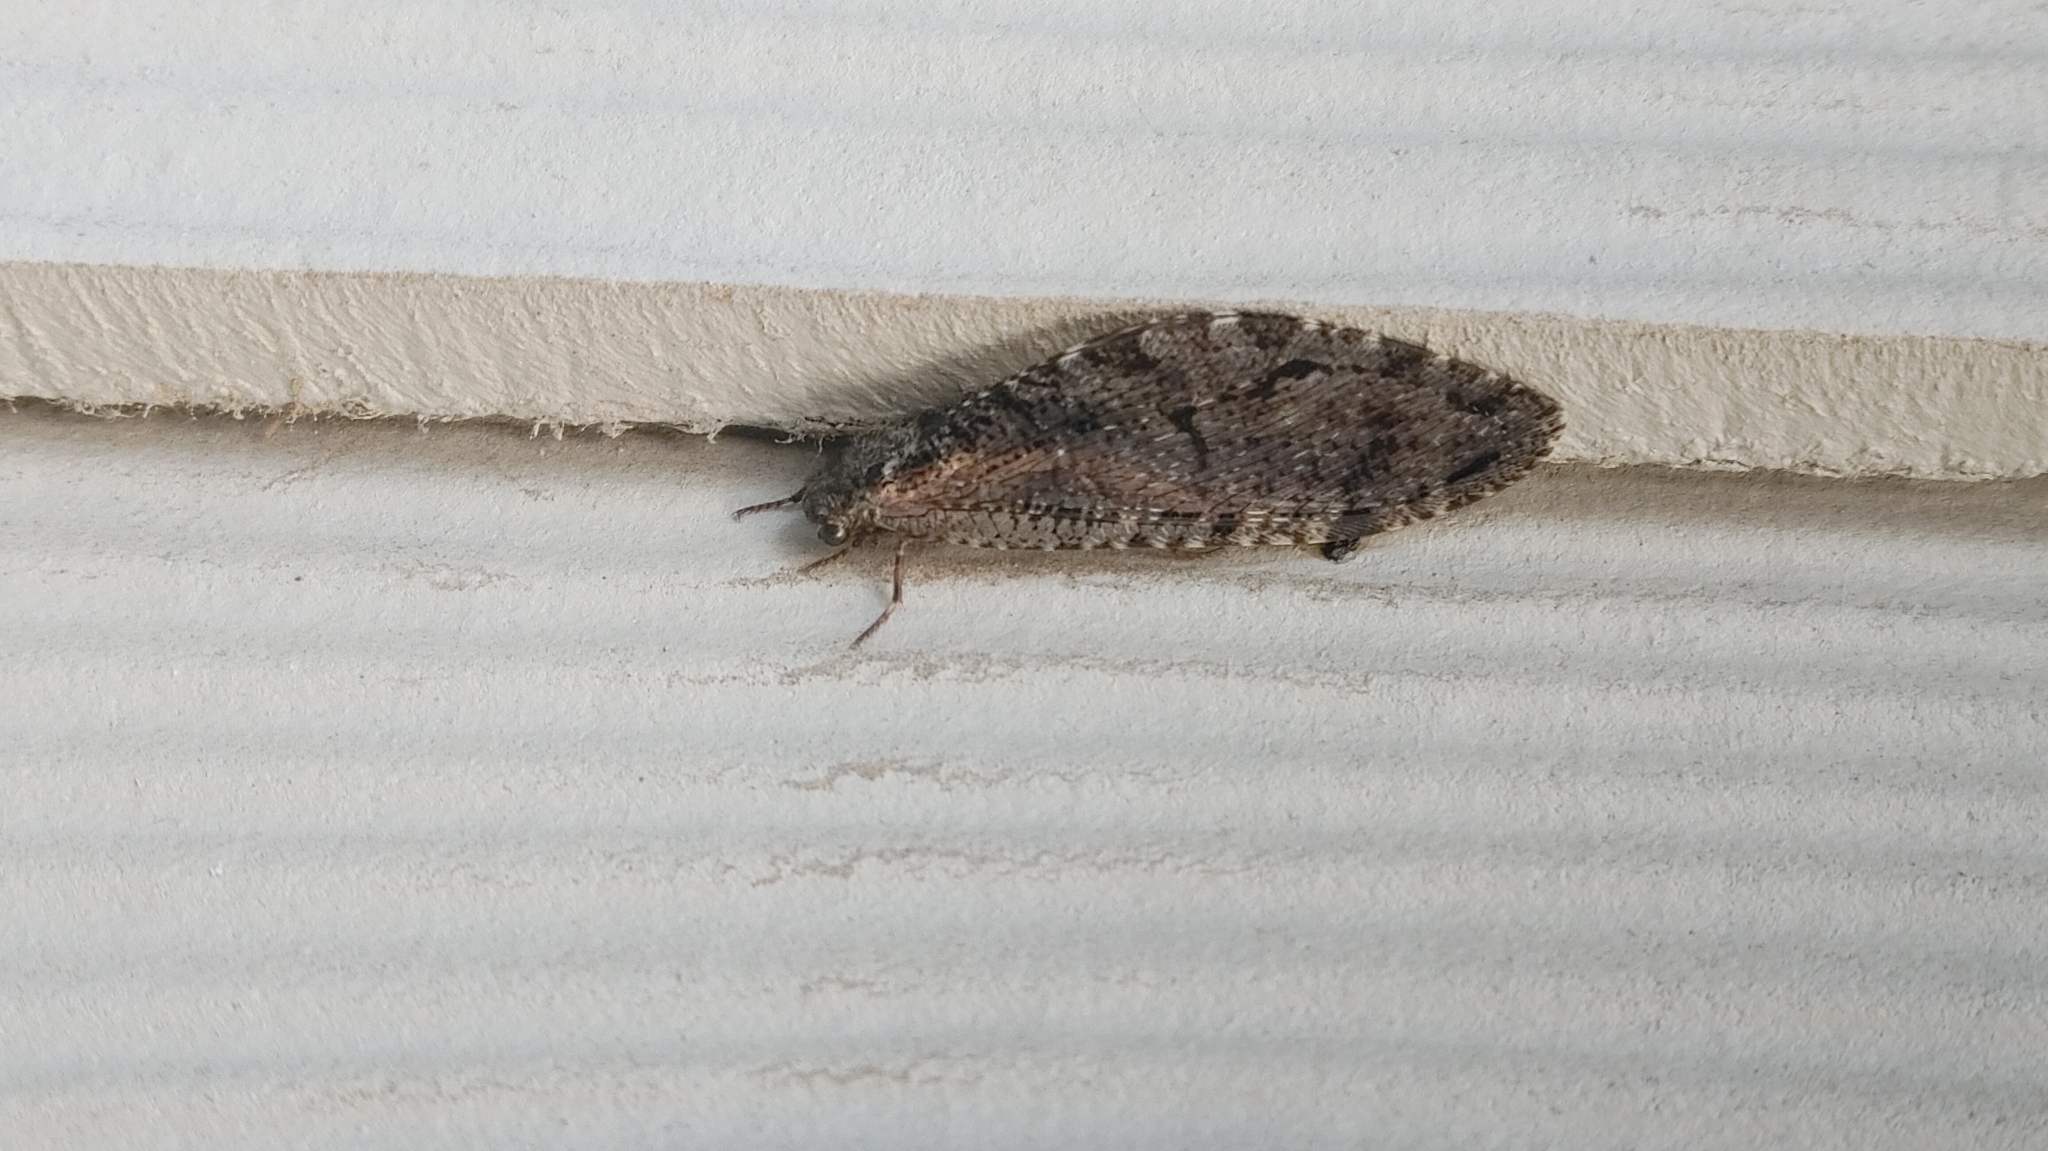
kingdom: Animalia
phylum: Arthropoda
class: Insecta
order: Neuroptera
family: Ithonidae
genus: Polystoechotes
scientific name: Polystoechotes punctata
